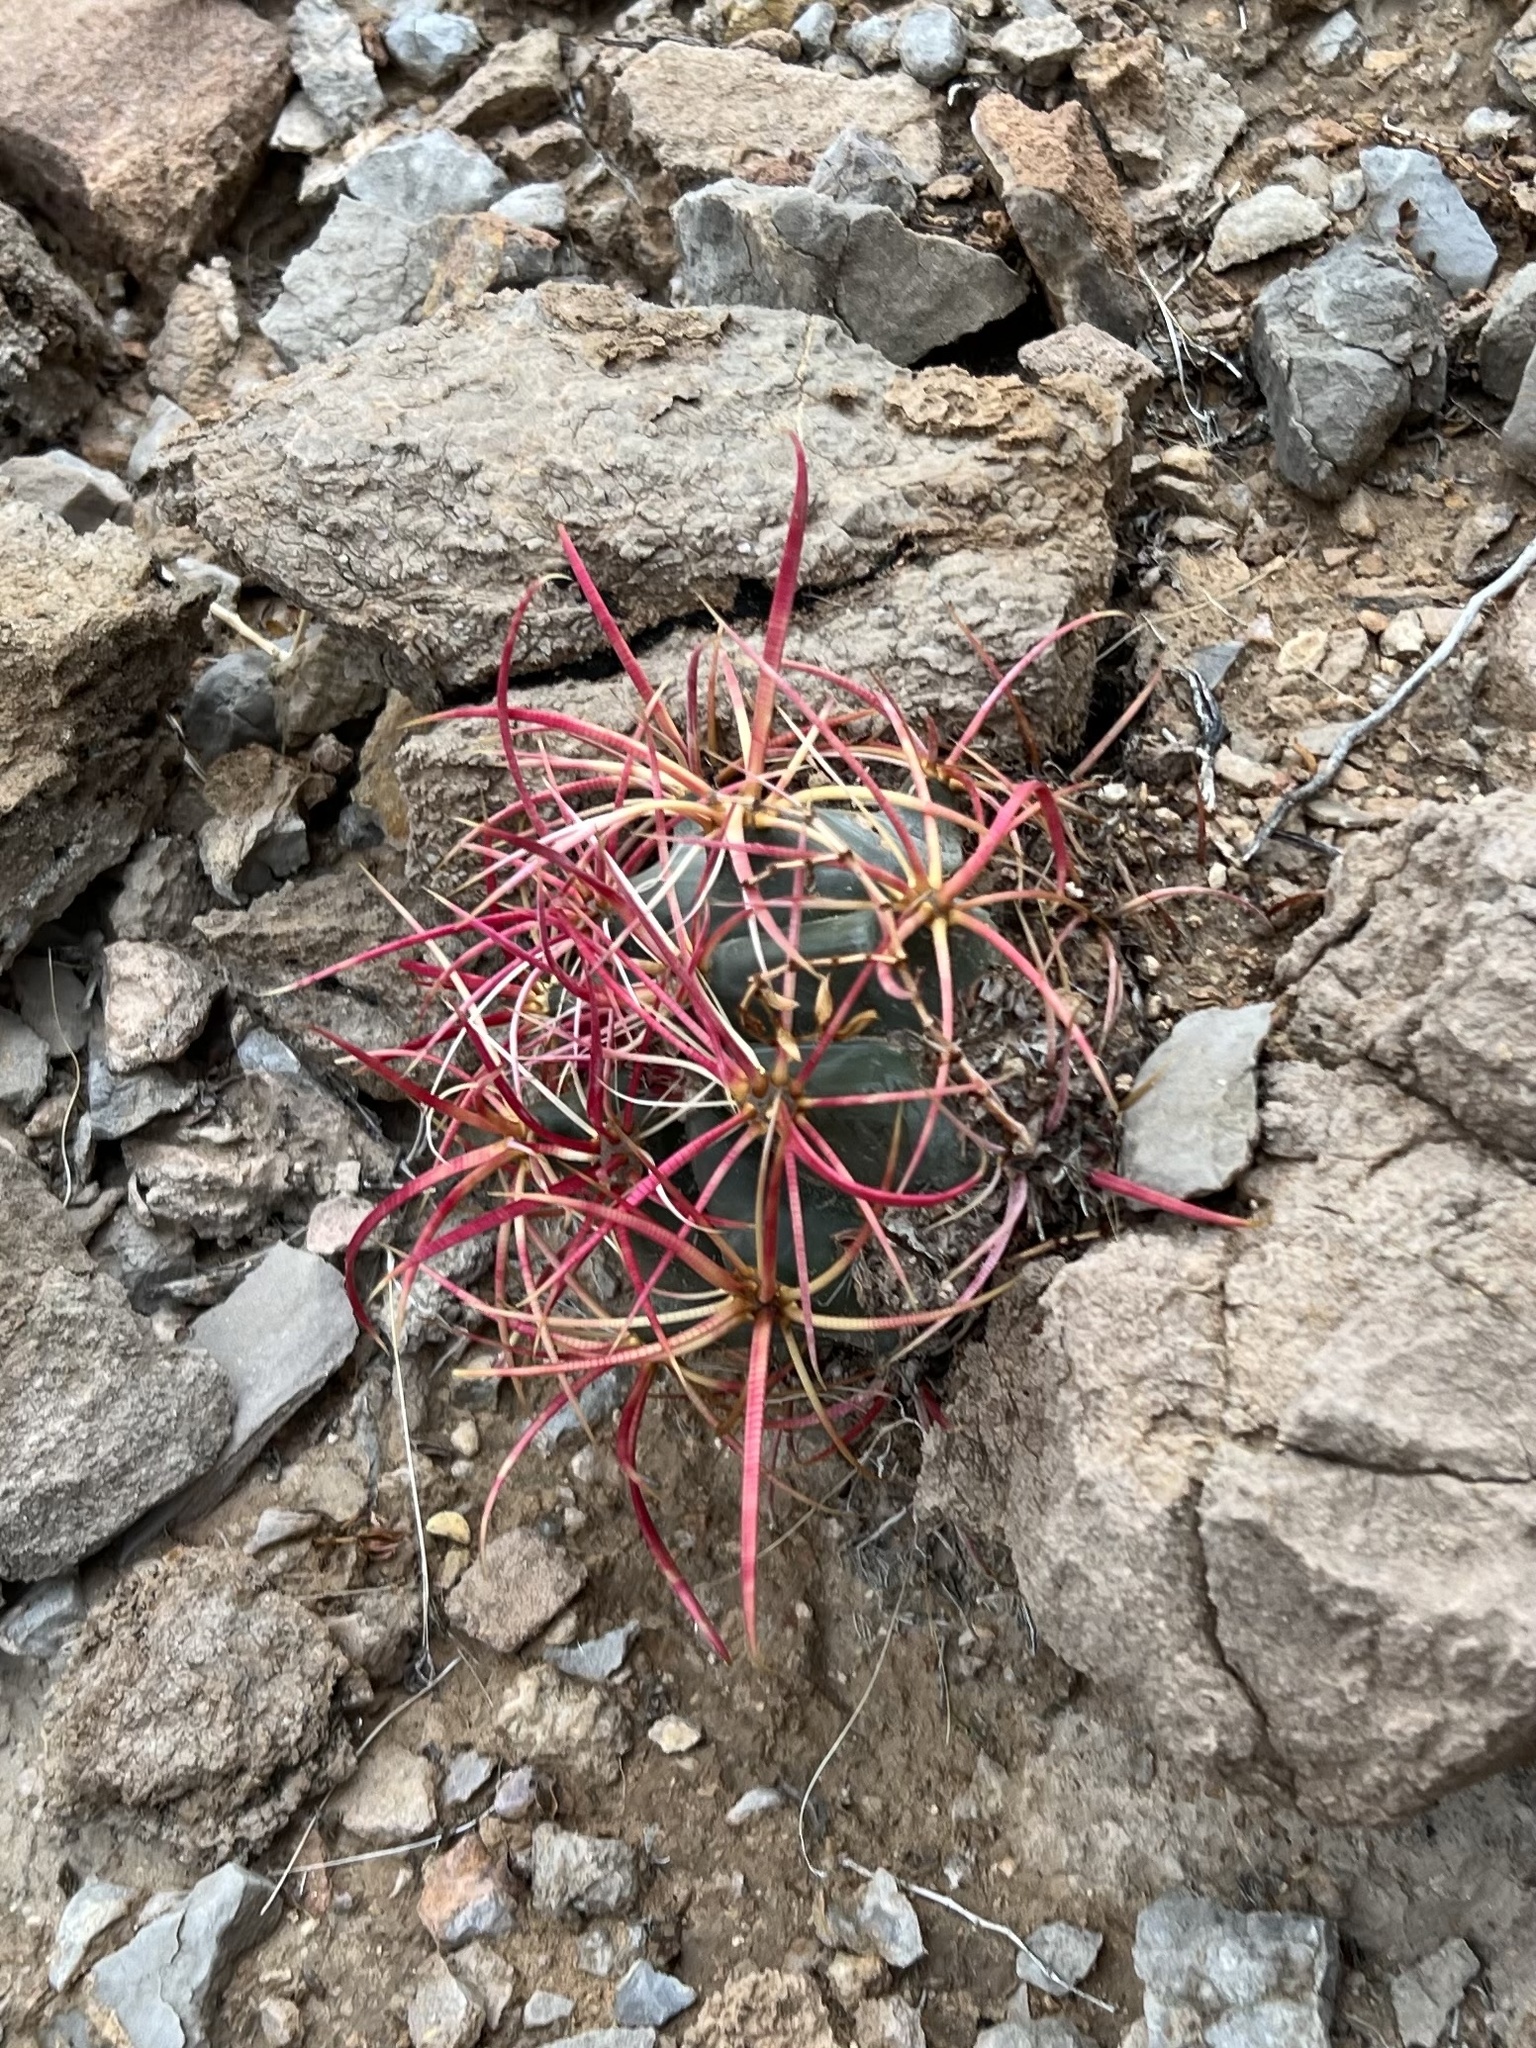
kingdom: Plantae
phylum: Tracheophyta
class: Magnoliopsida
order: Caryophyllales
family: Cactaceae
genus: Ferocactus
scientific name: Ferocactus cylindraceus
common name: California barrel cactus
